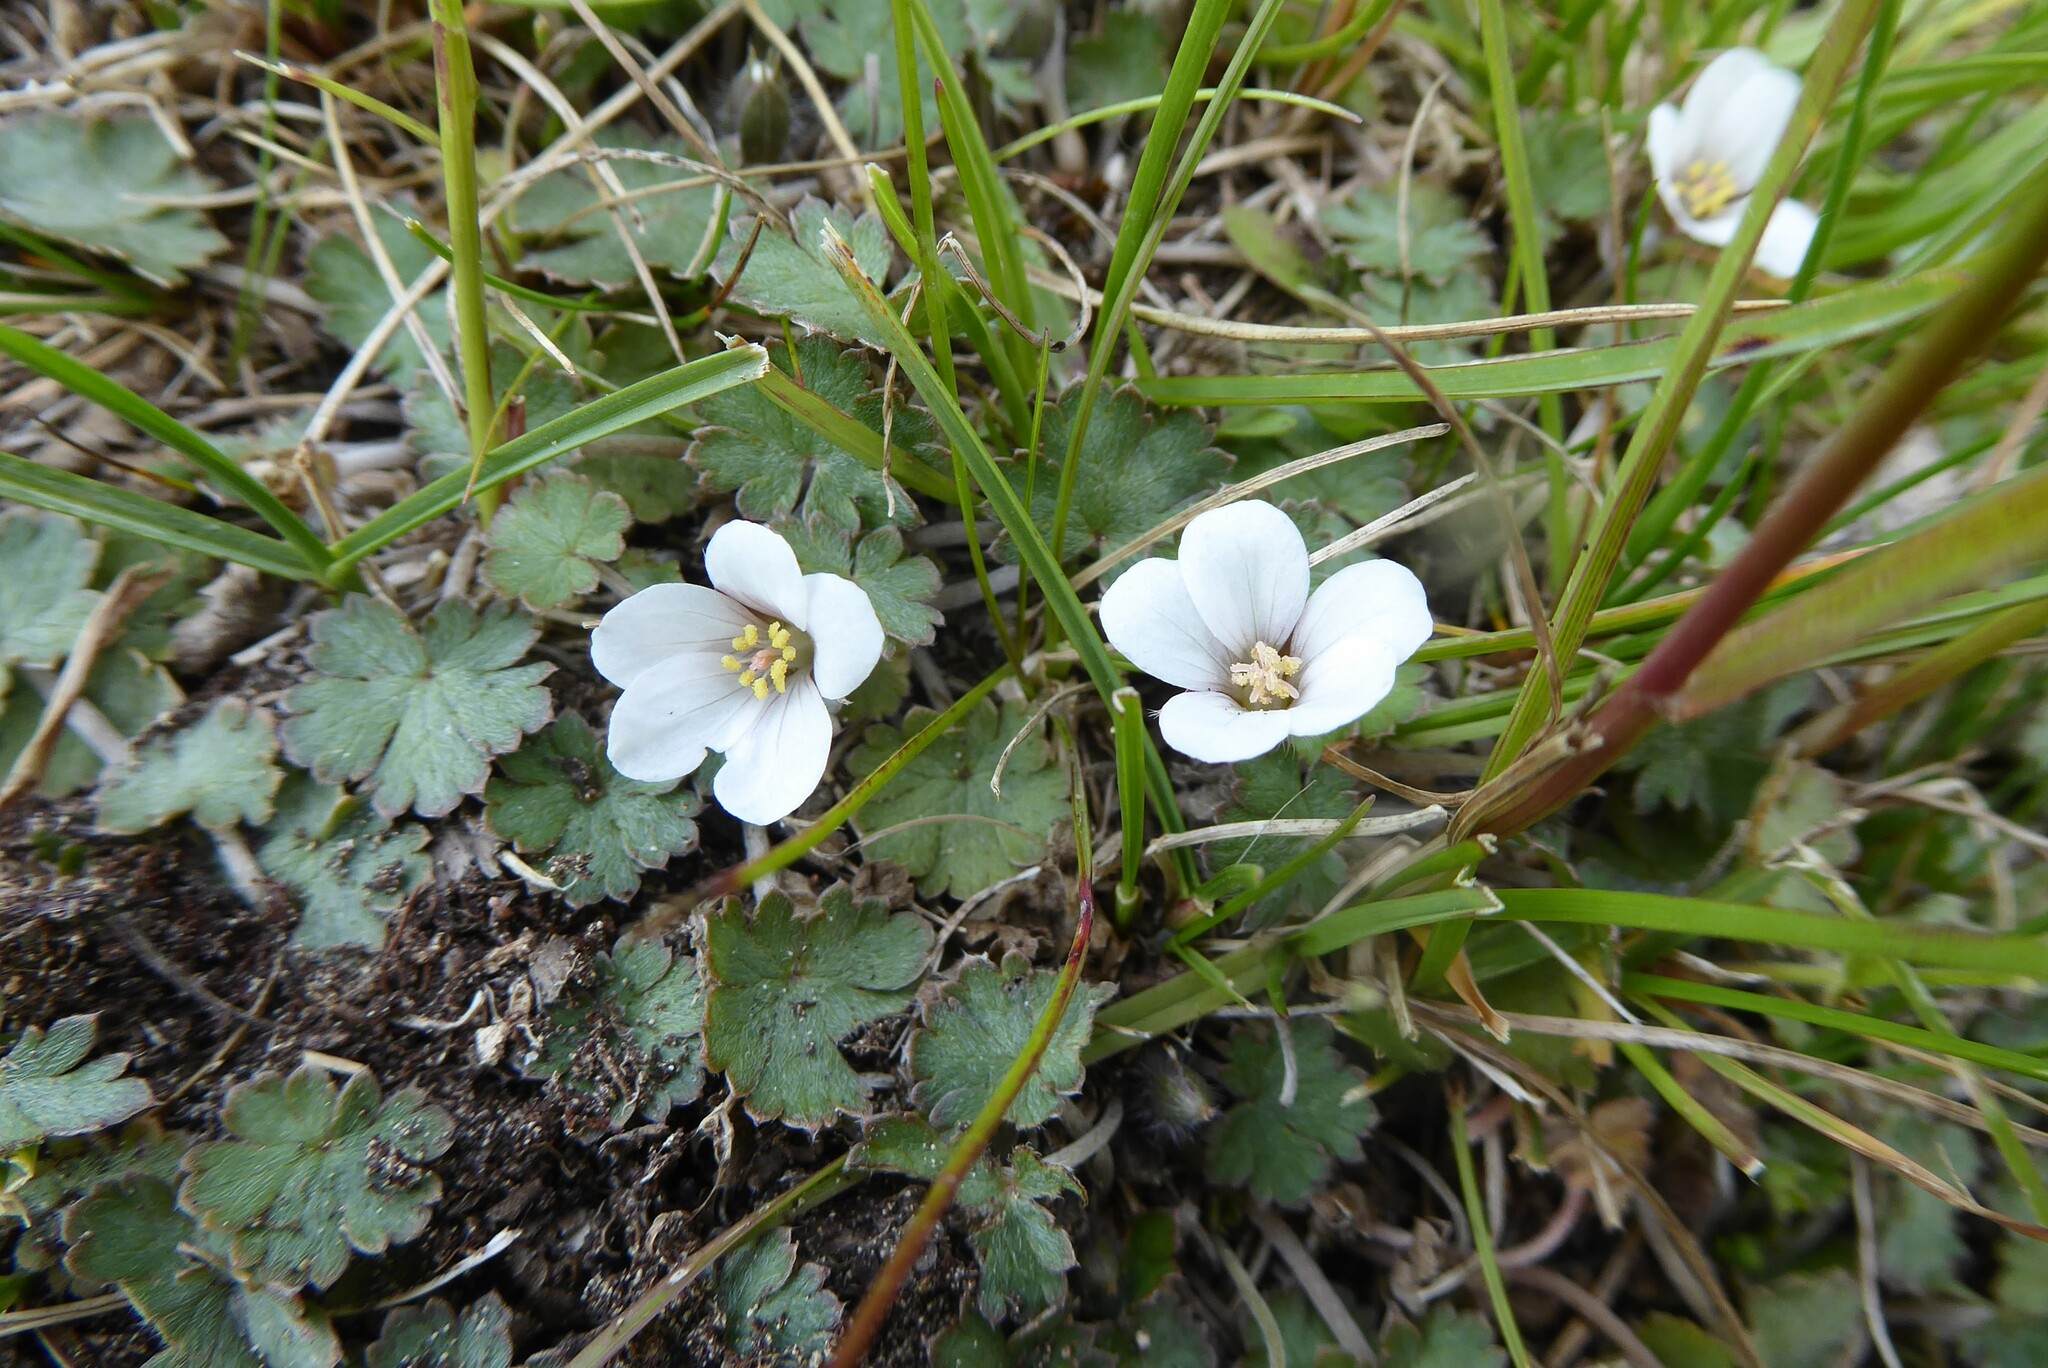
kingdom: Plantae
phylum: Tracheophyta
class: Magnoliopsida
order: Geraniales
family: Geraniaceae
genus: Geranium
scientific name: Geranium socolateum
